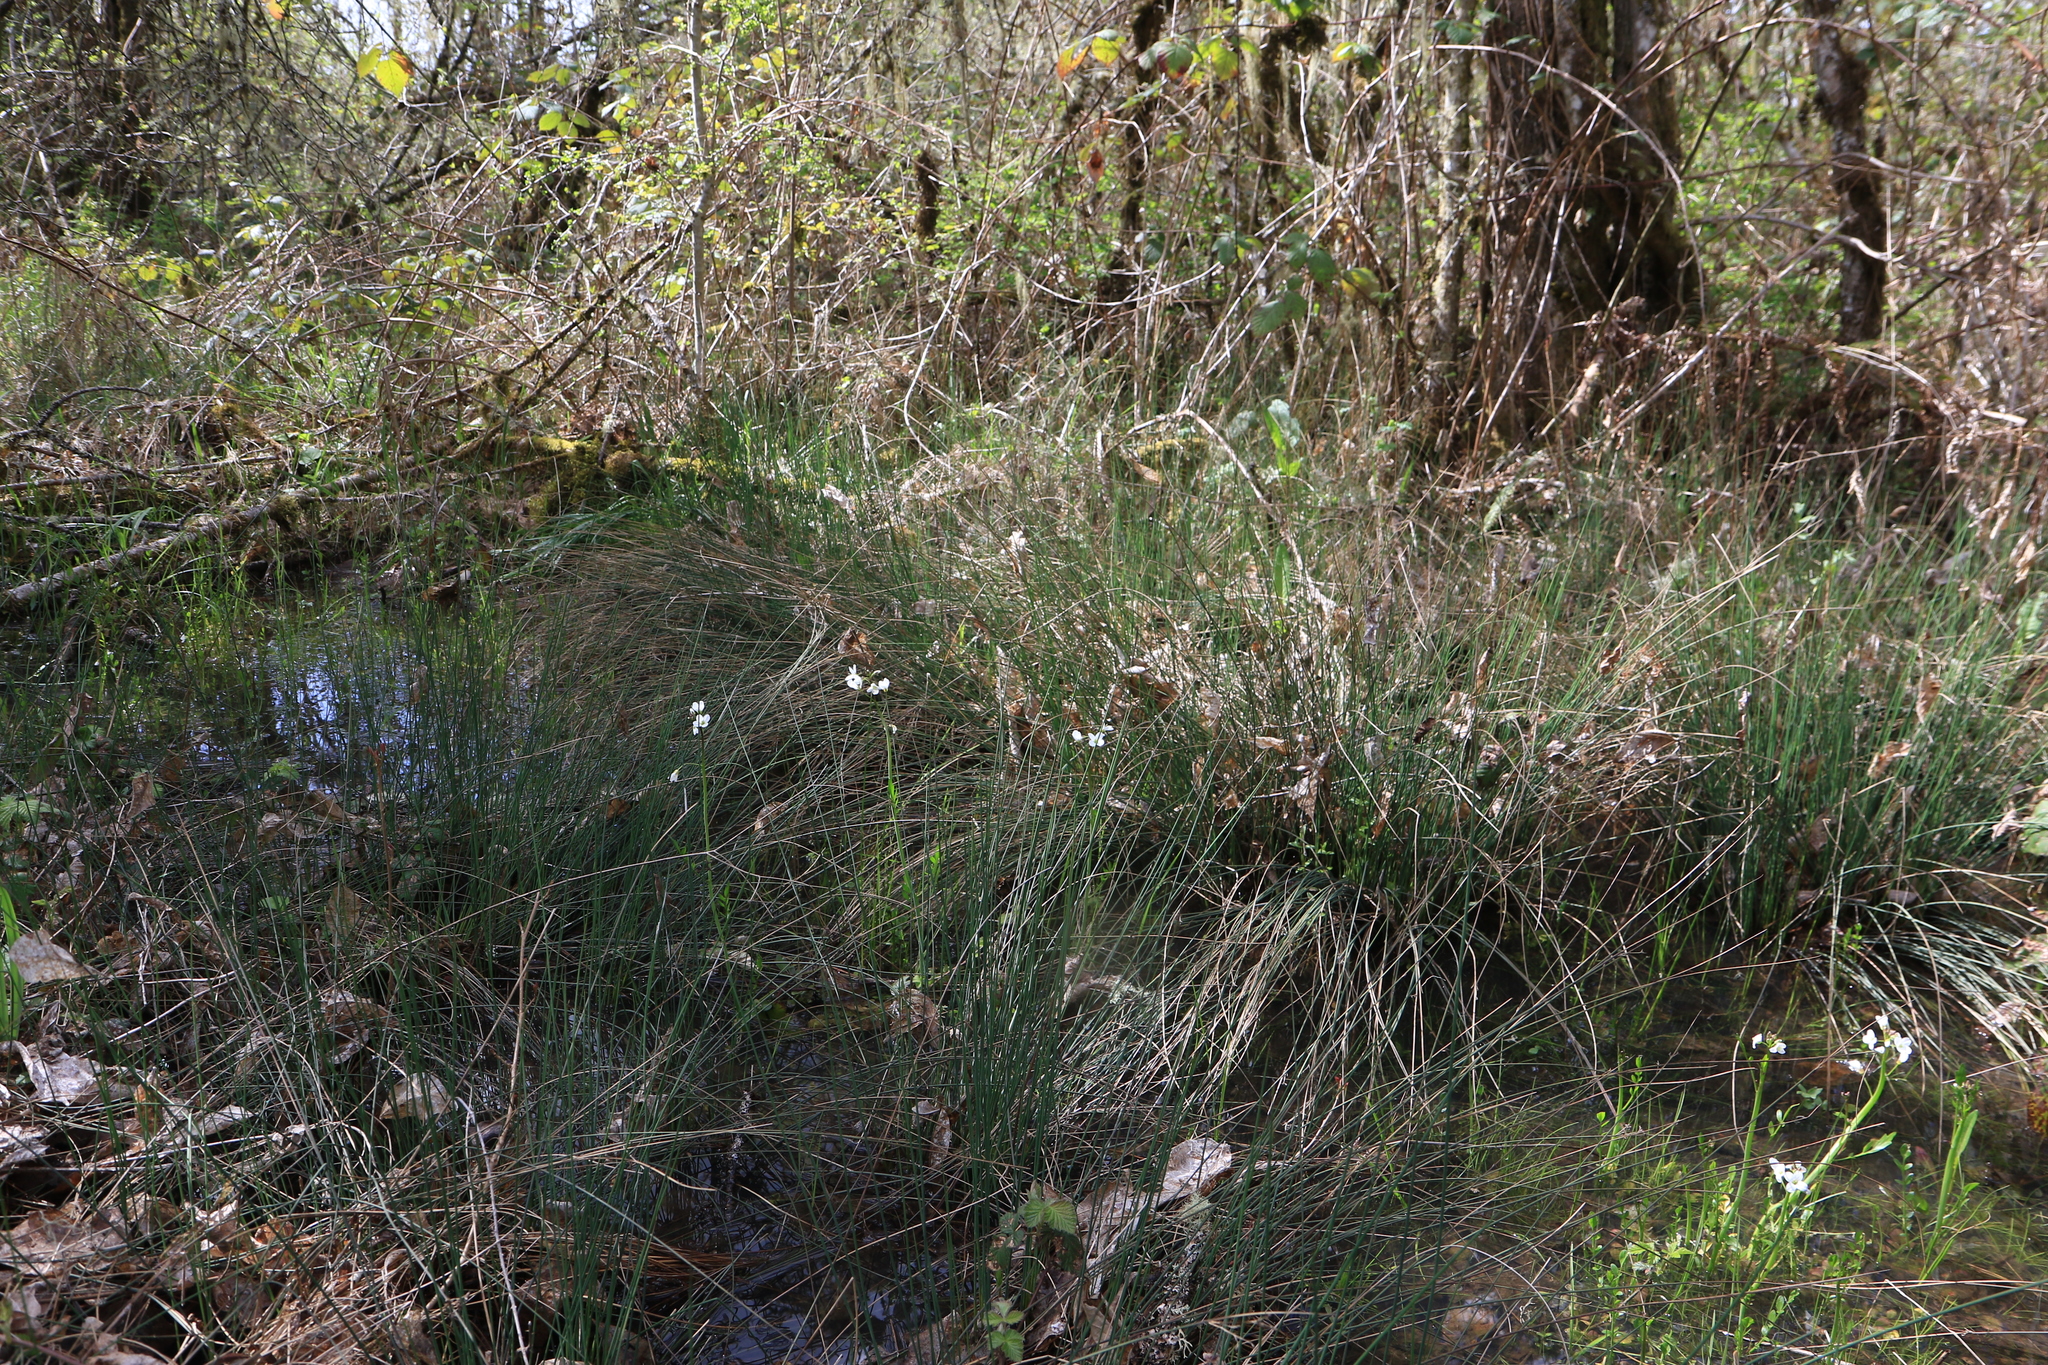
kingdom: Plantae
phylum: Tracheophyta
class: Magnoliopsida
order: Brassicales
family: Brassicaceae
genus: Cardamine
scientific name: Cardamine penduliflora
